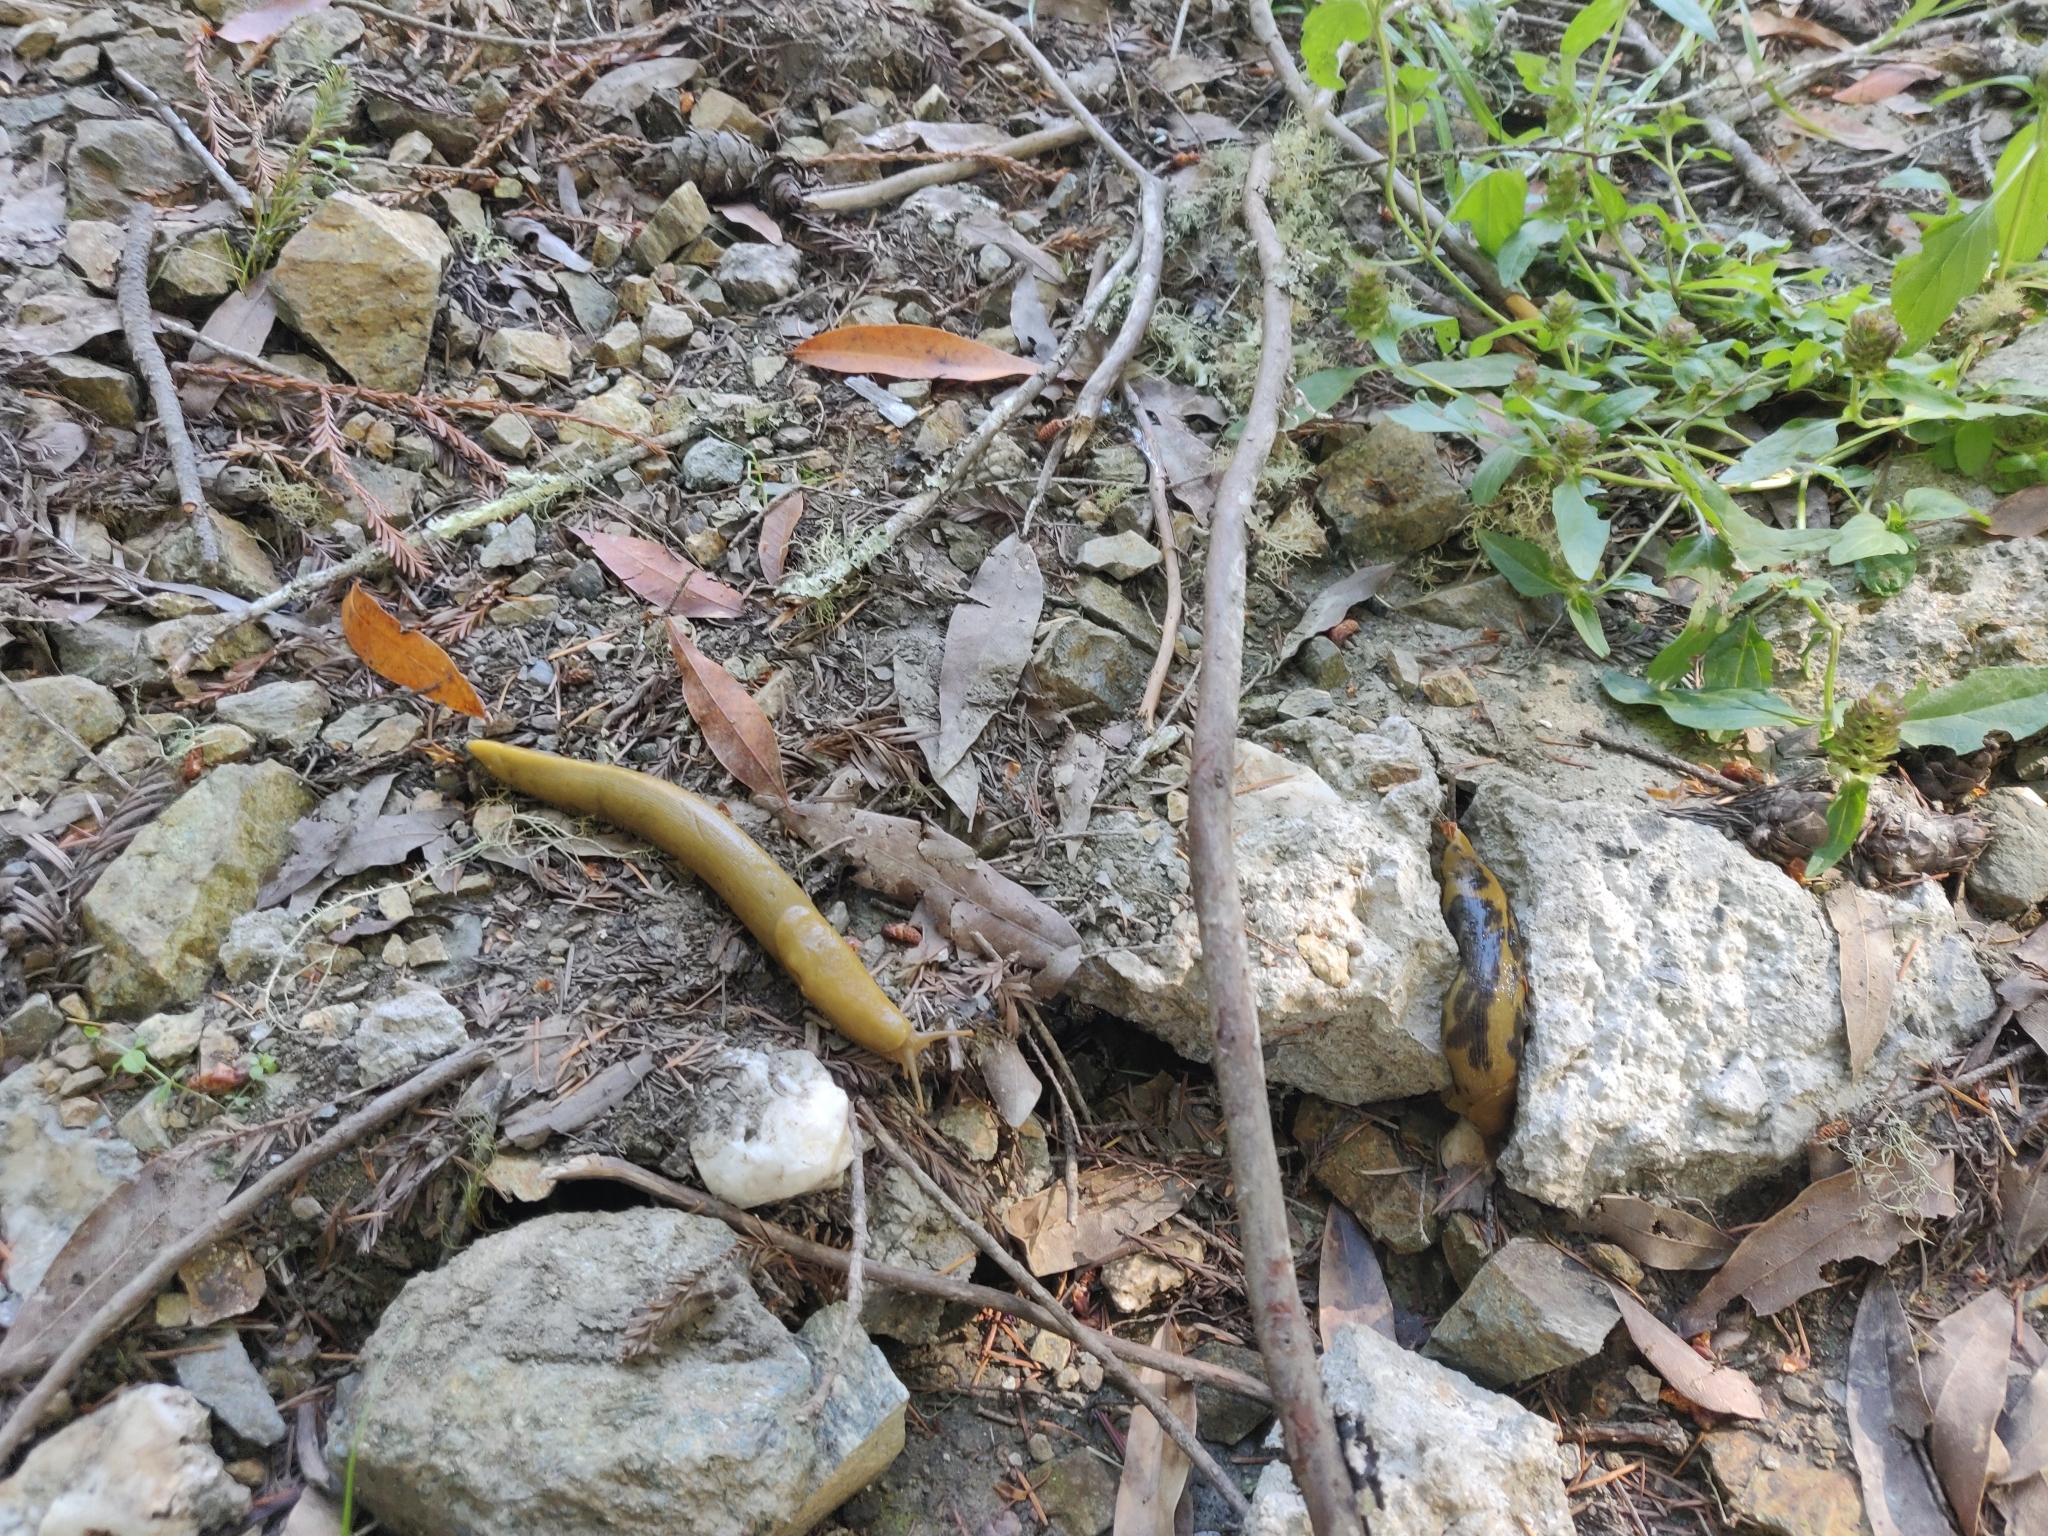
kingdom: Animalia
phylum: Mollusca
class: Gastropoda
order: Stylommatophora
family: Ariolimacidae
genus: Ariolimax
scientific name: Ariolimax buttoni
